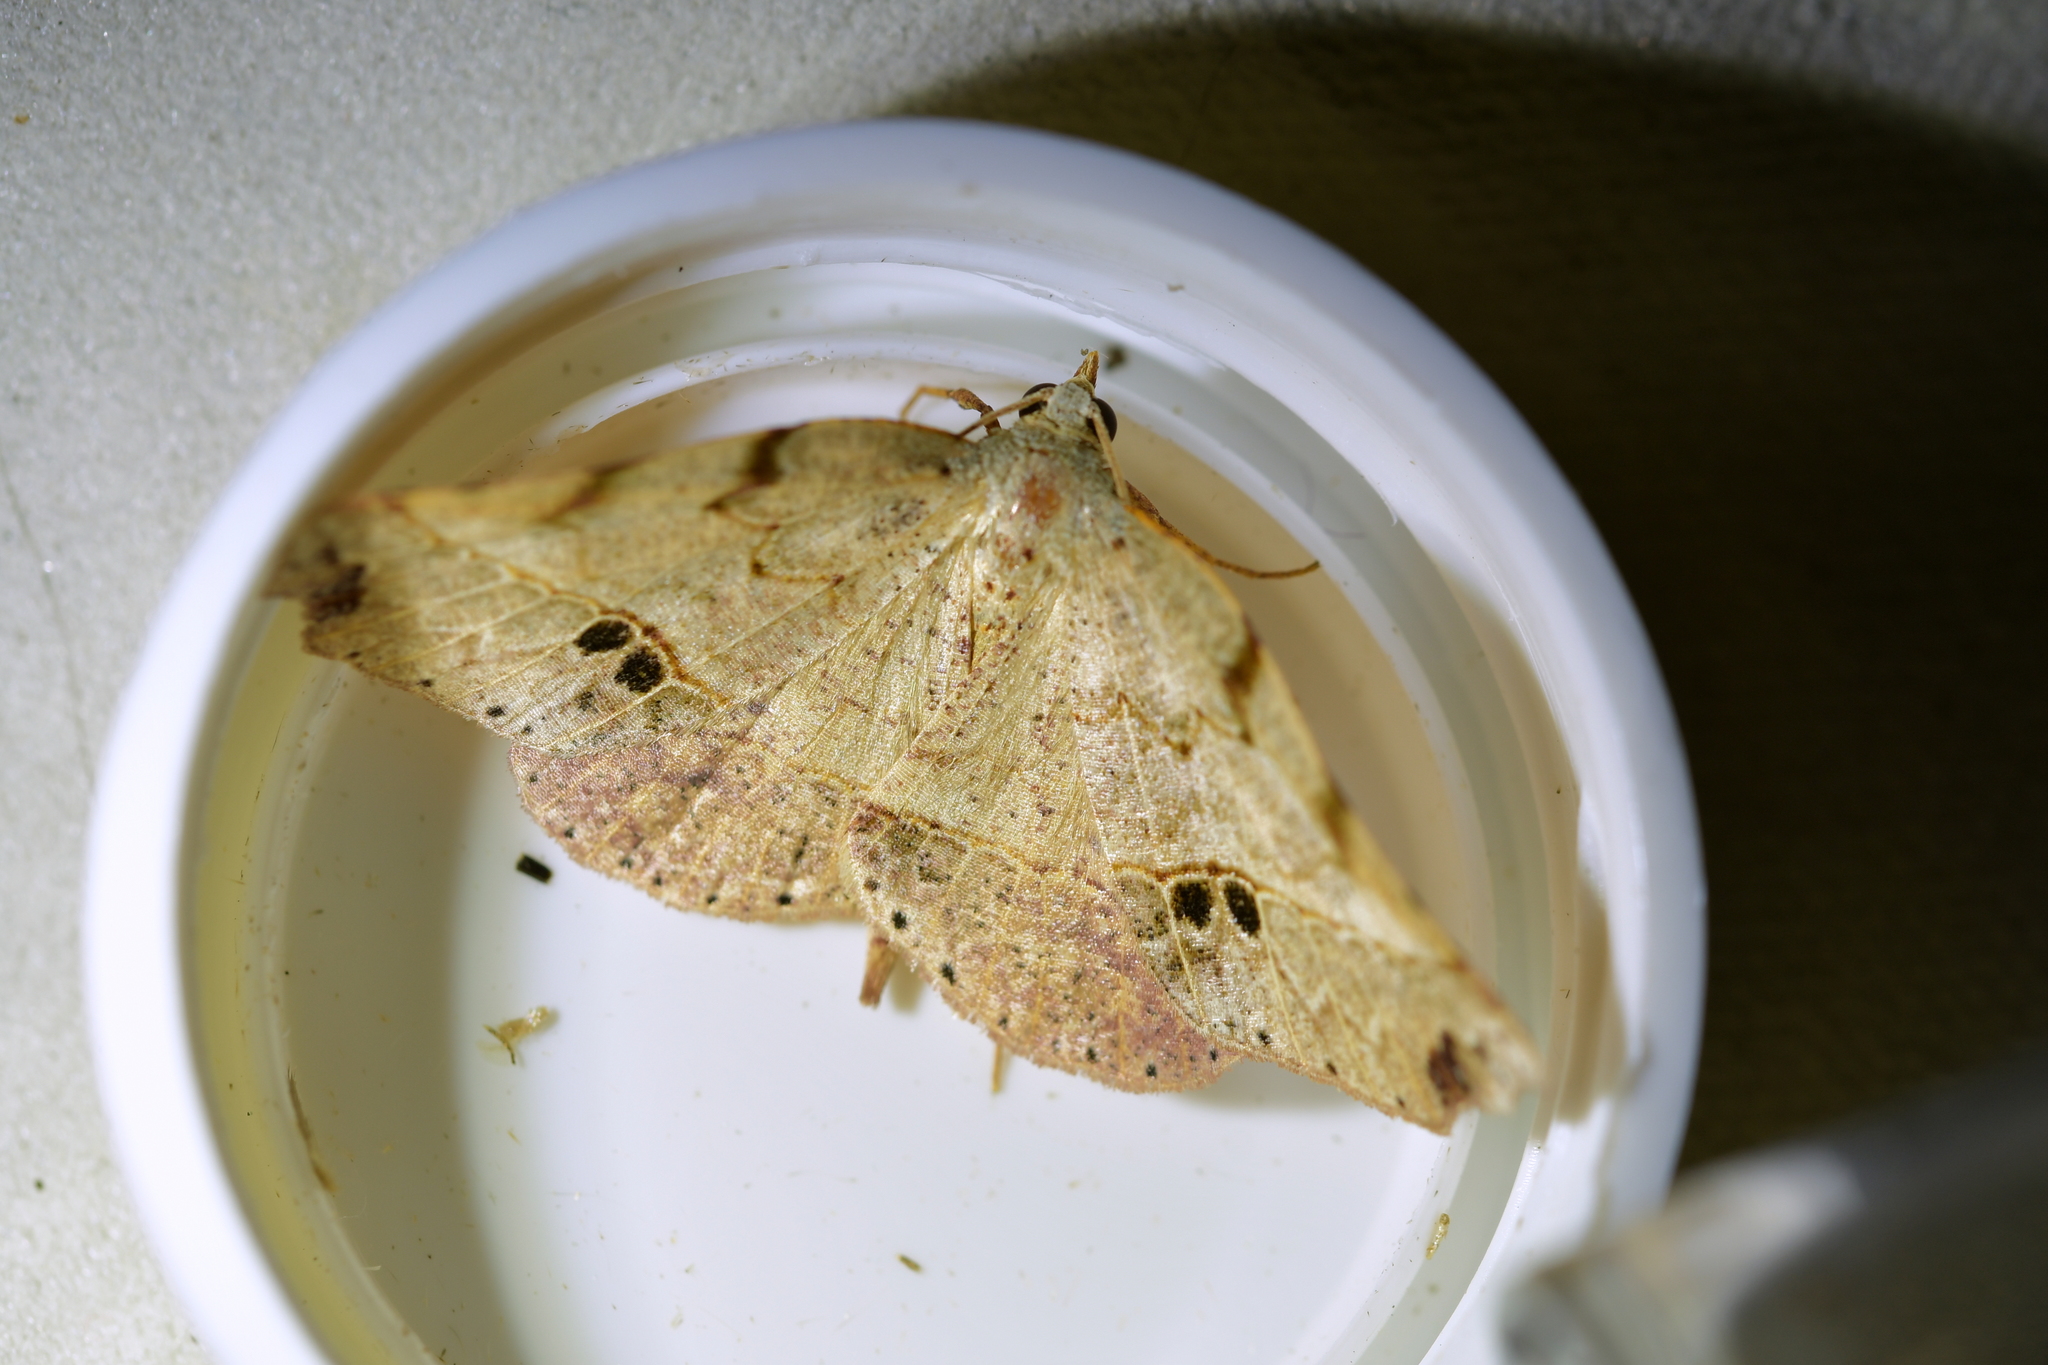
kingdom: Animalia
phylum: Arthropoda
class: Insecta
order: Lepidoptera
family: Geometridae
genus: Ischalis
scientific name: Ischalis gallaria
